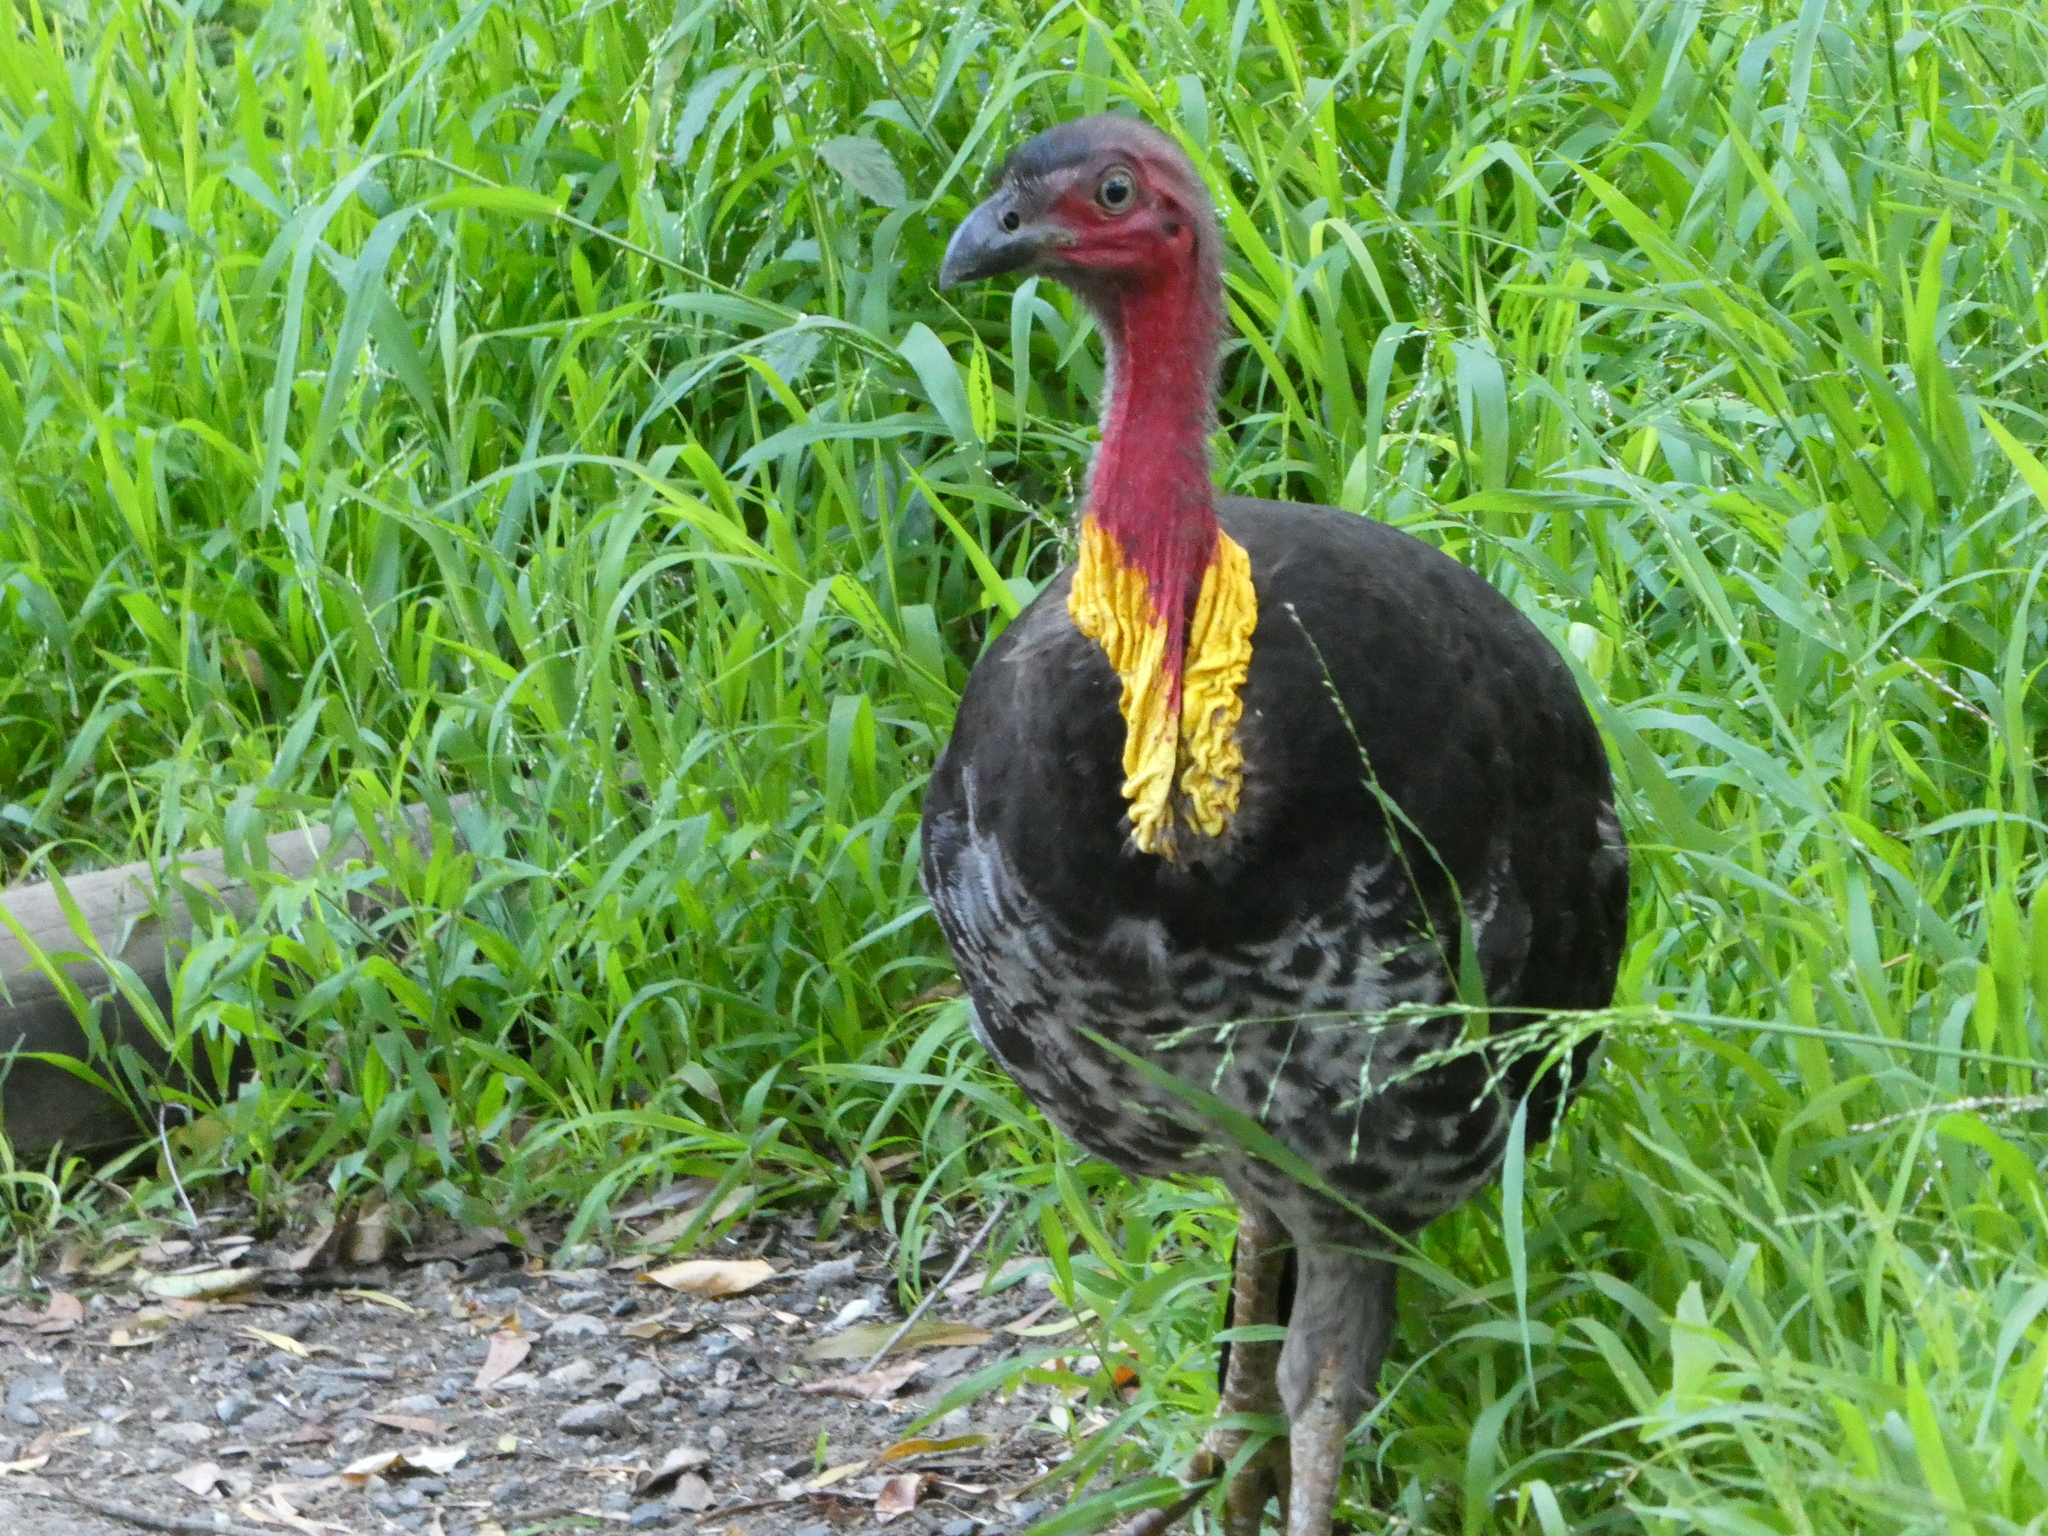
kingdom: Animalia
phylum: Chordata
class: Aves
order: Galliformes
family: Megapodiidae
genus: Alectura
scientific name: Alectura lathami
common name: Australian brushturkey
